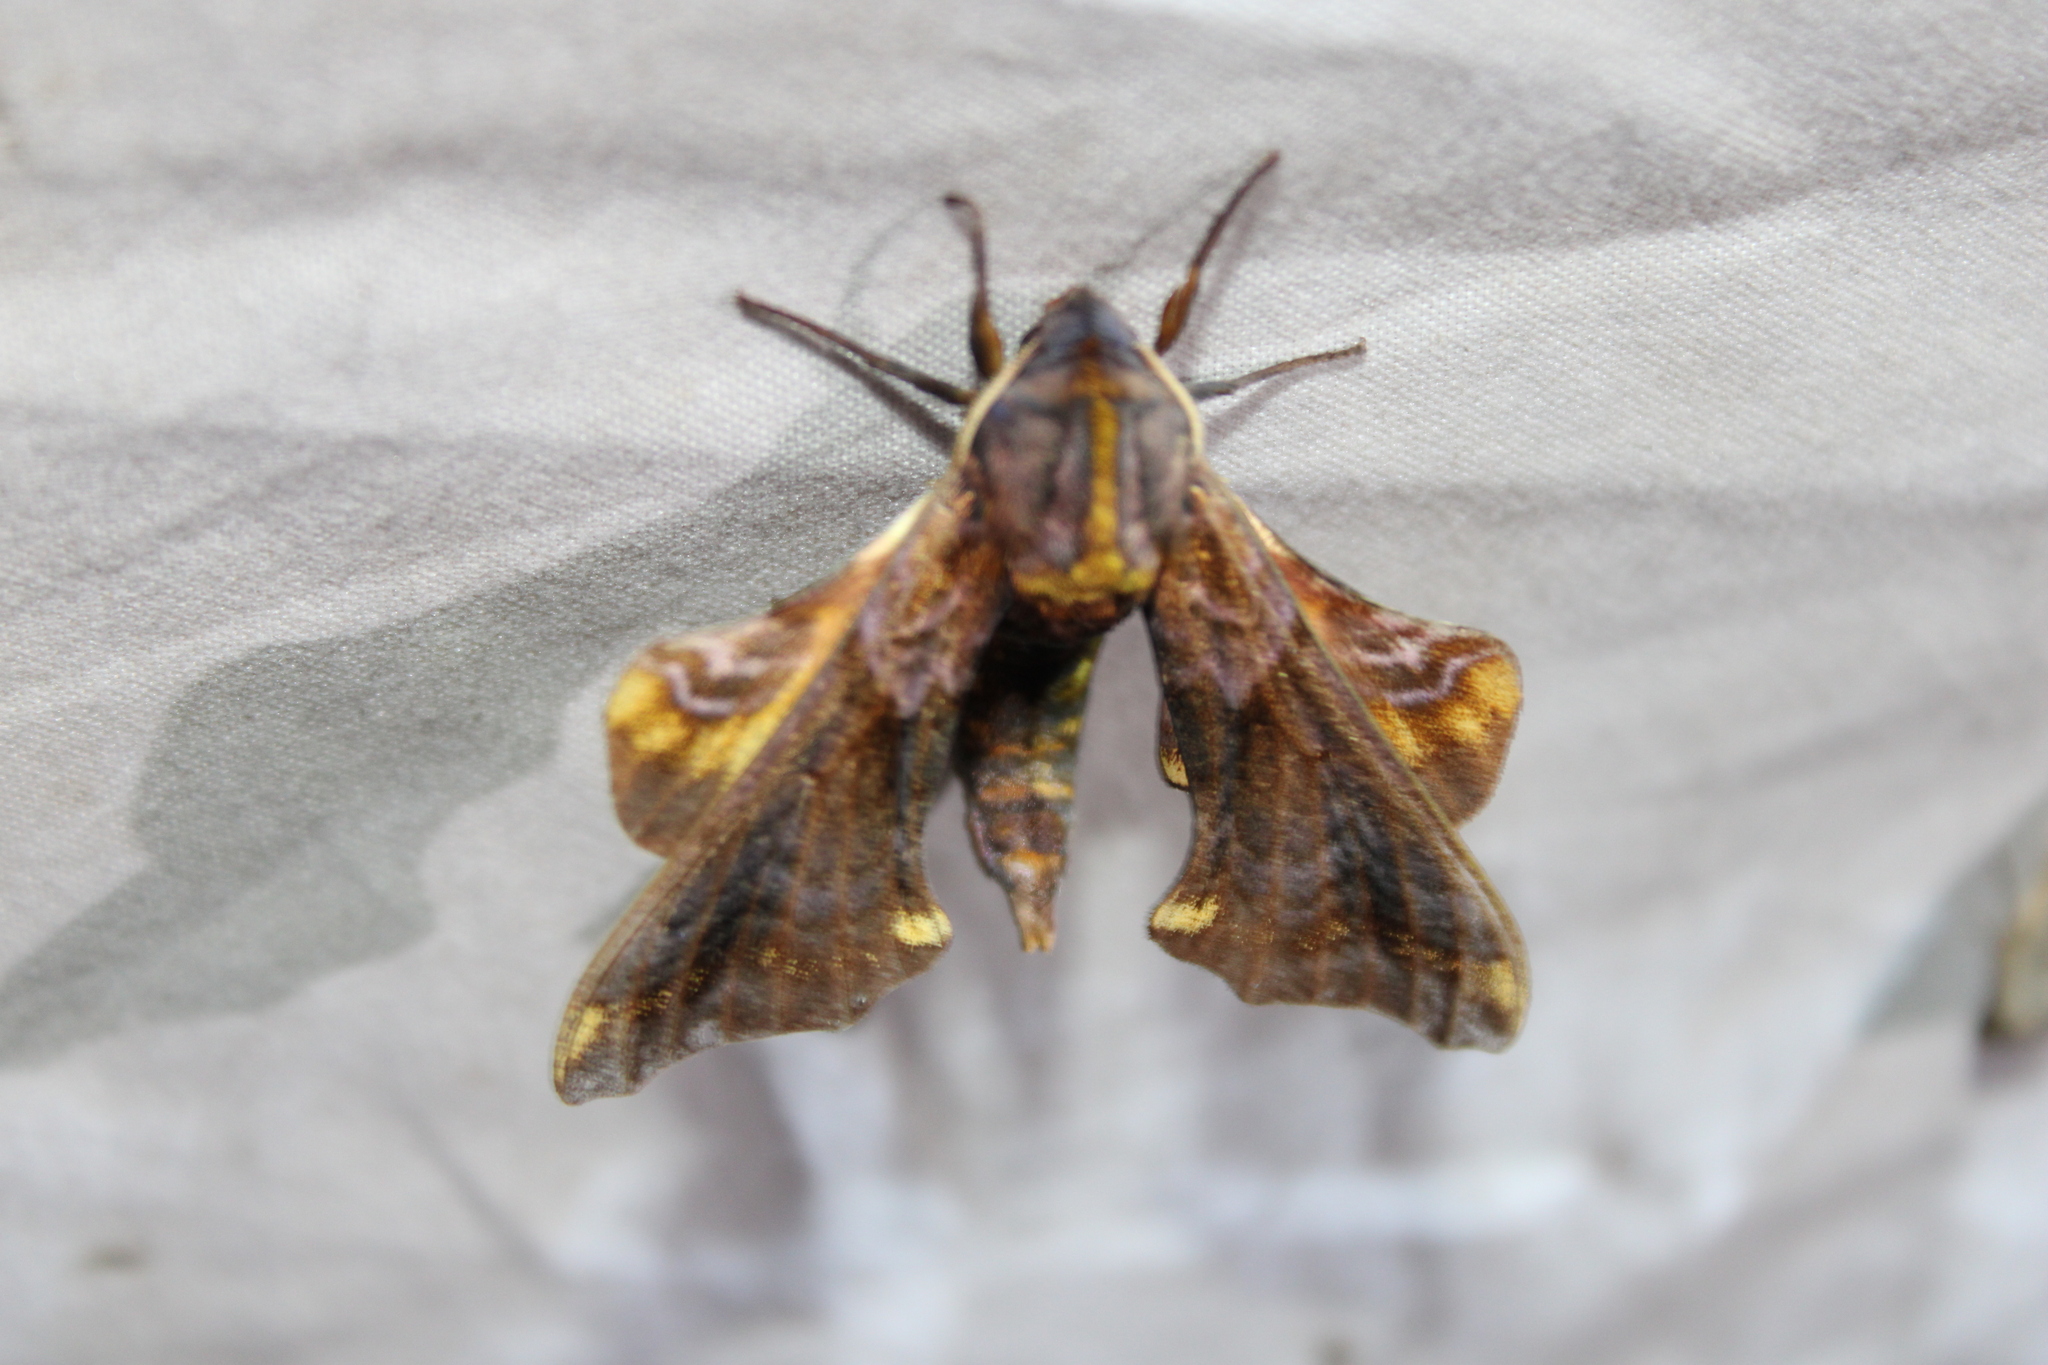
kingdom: Animalia
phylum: Arthropoda
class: Insecta
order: Lepidoptera
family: Sphingidae
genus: Paonias
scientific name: Paonias myops
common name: Small-eyed sphinx
